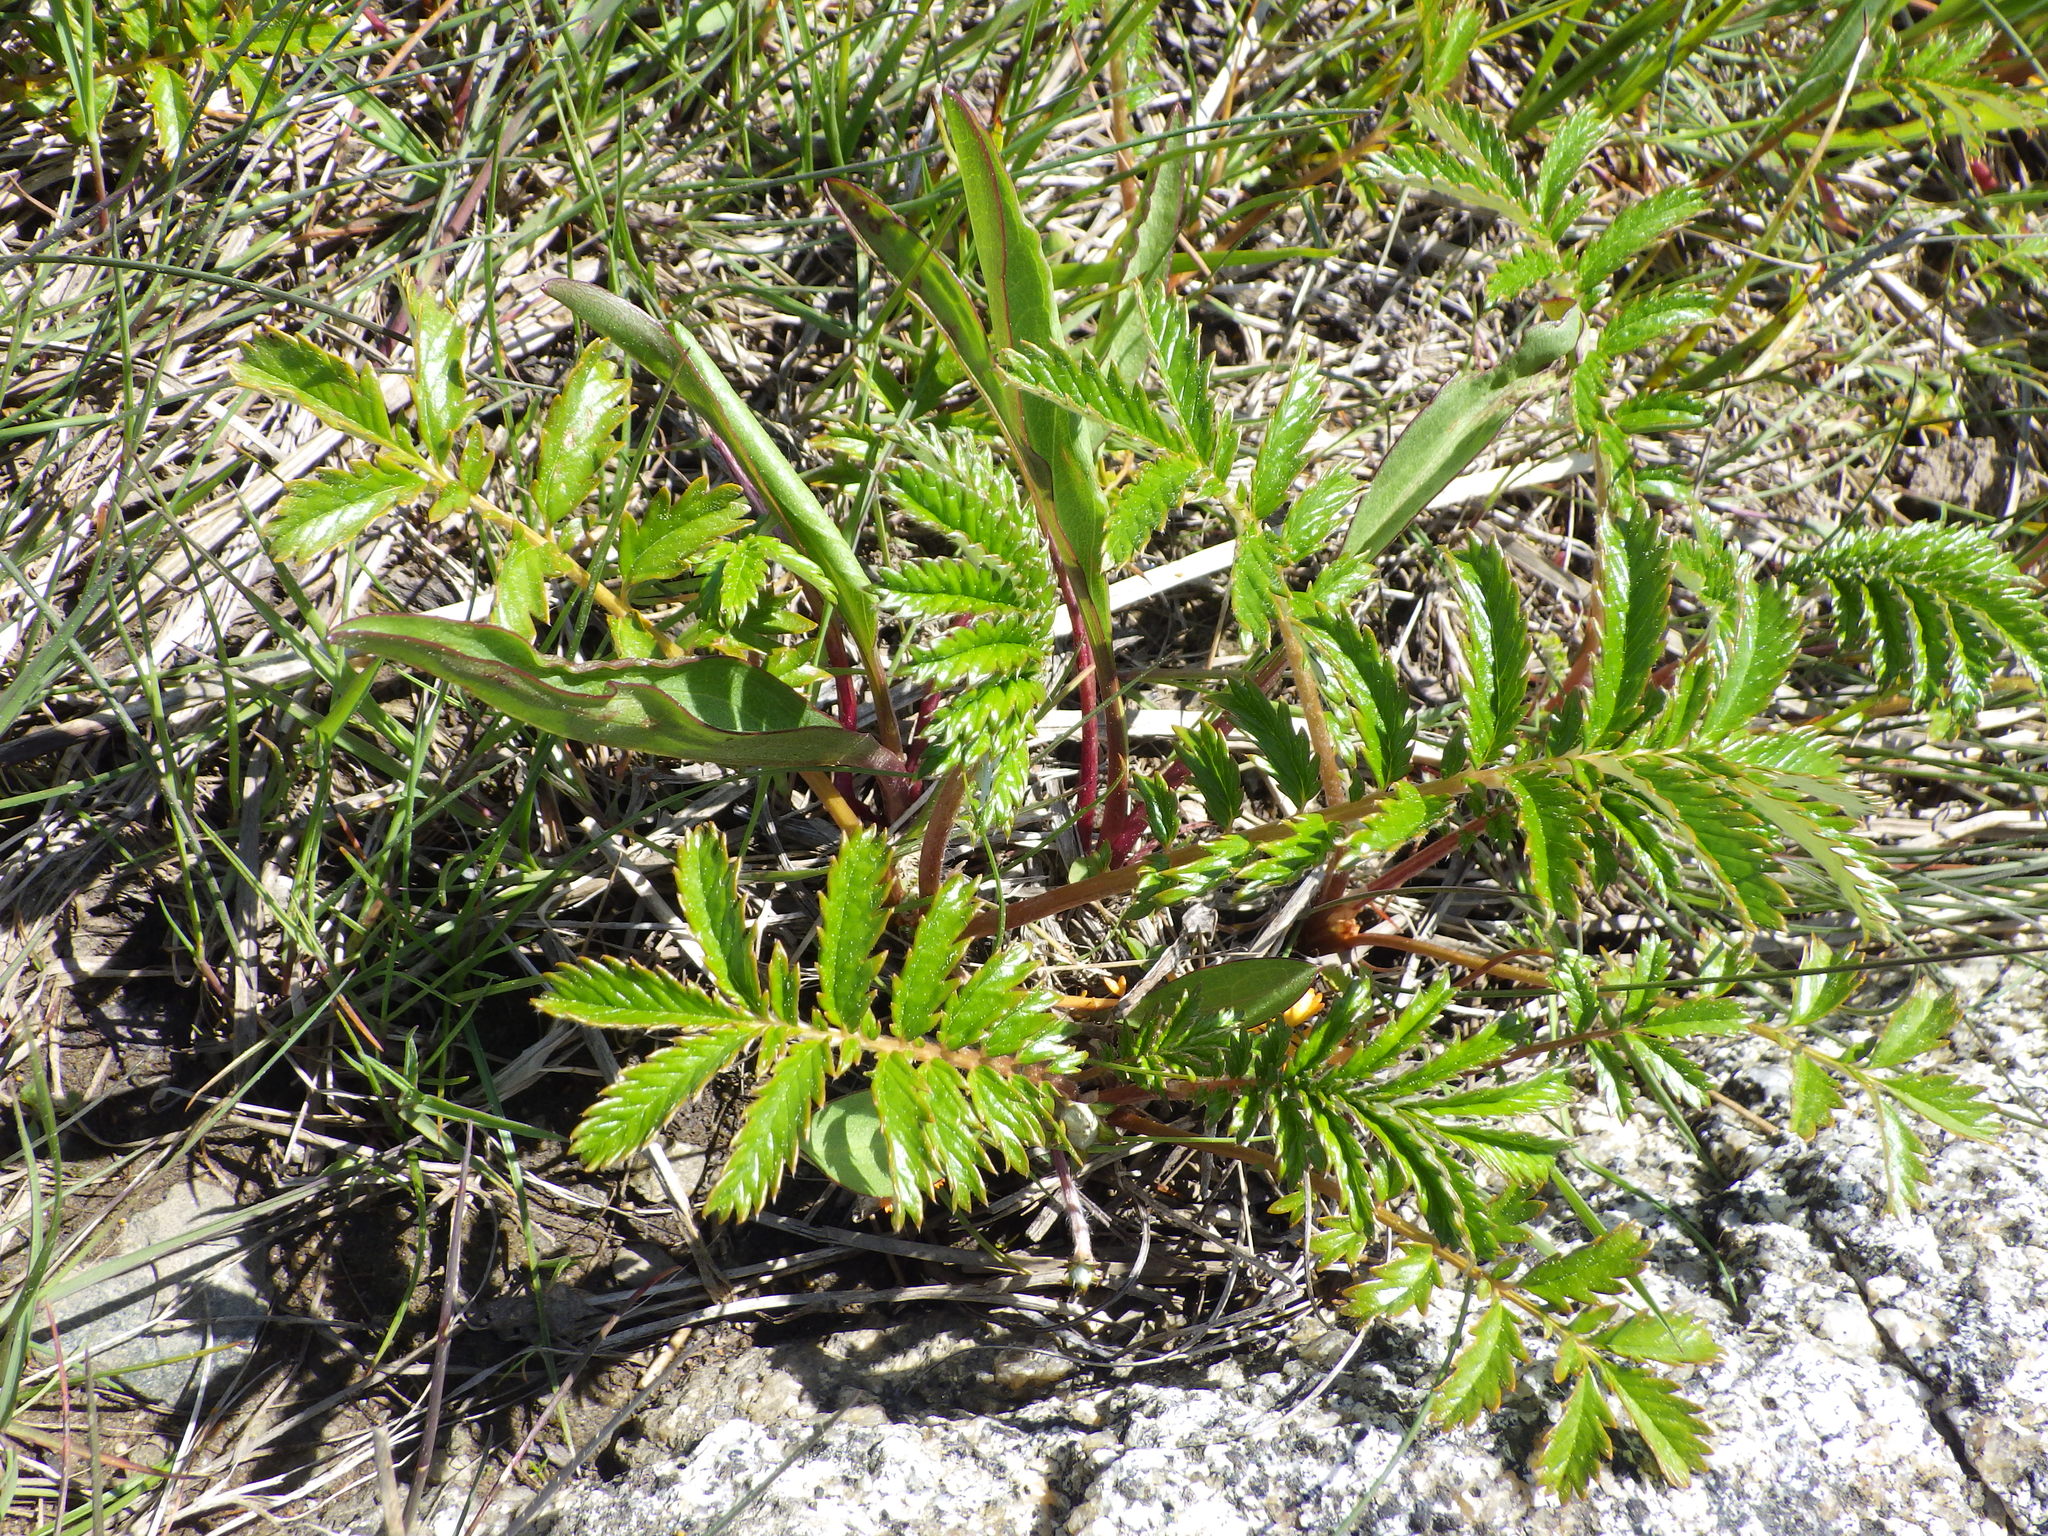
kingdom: Plantae
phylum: Tracheophyta
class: Magnoliopsida
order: Rosales
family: Rosaceae
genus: Argentina
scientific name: Argentina anserina
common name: Common silverweed
